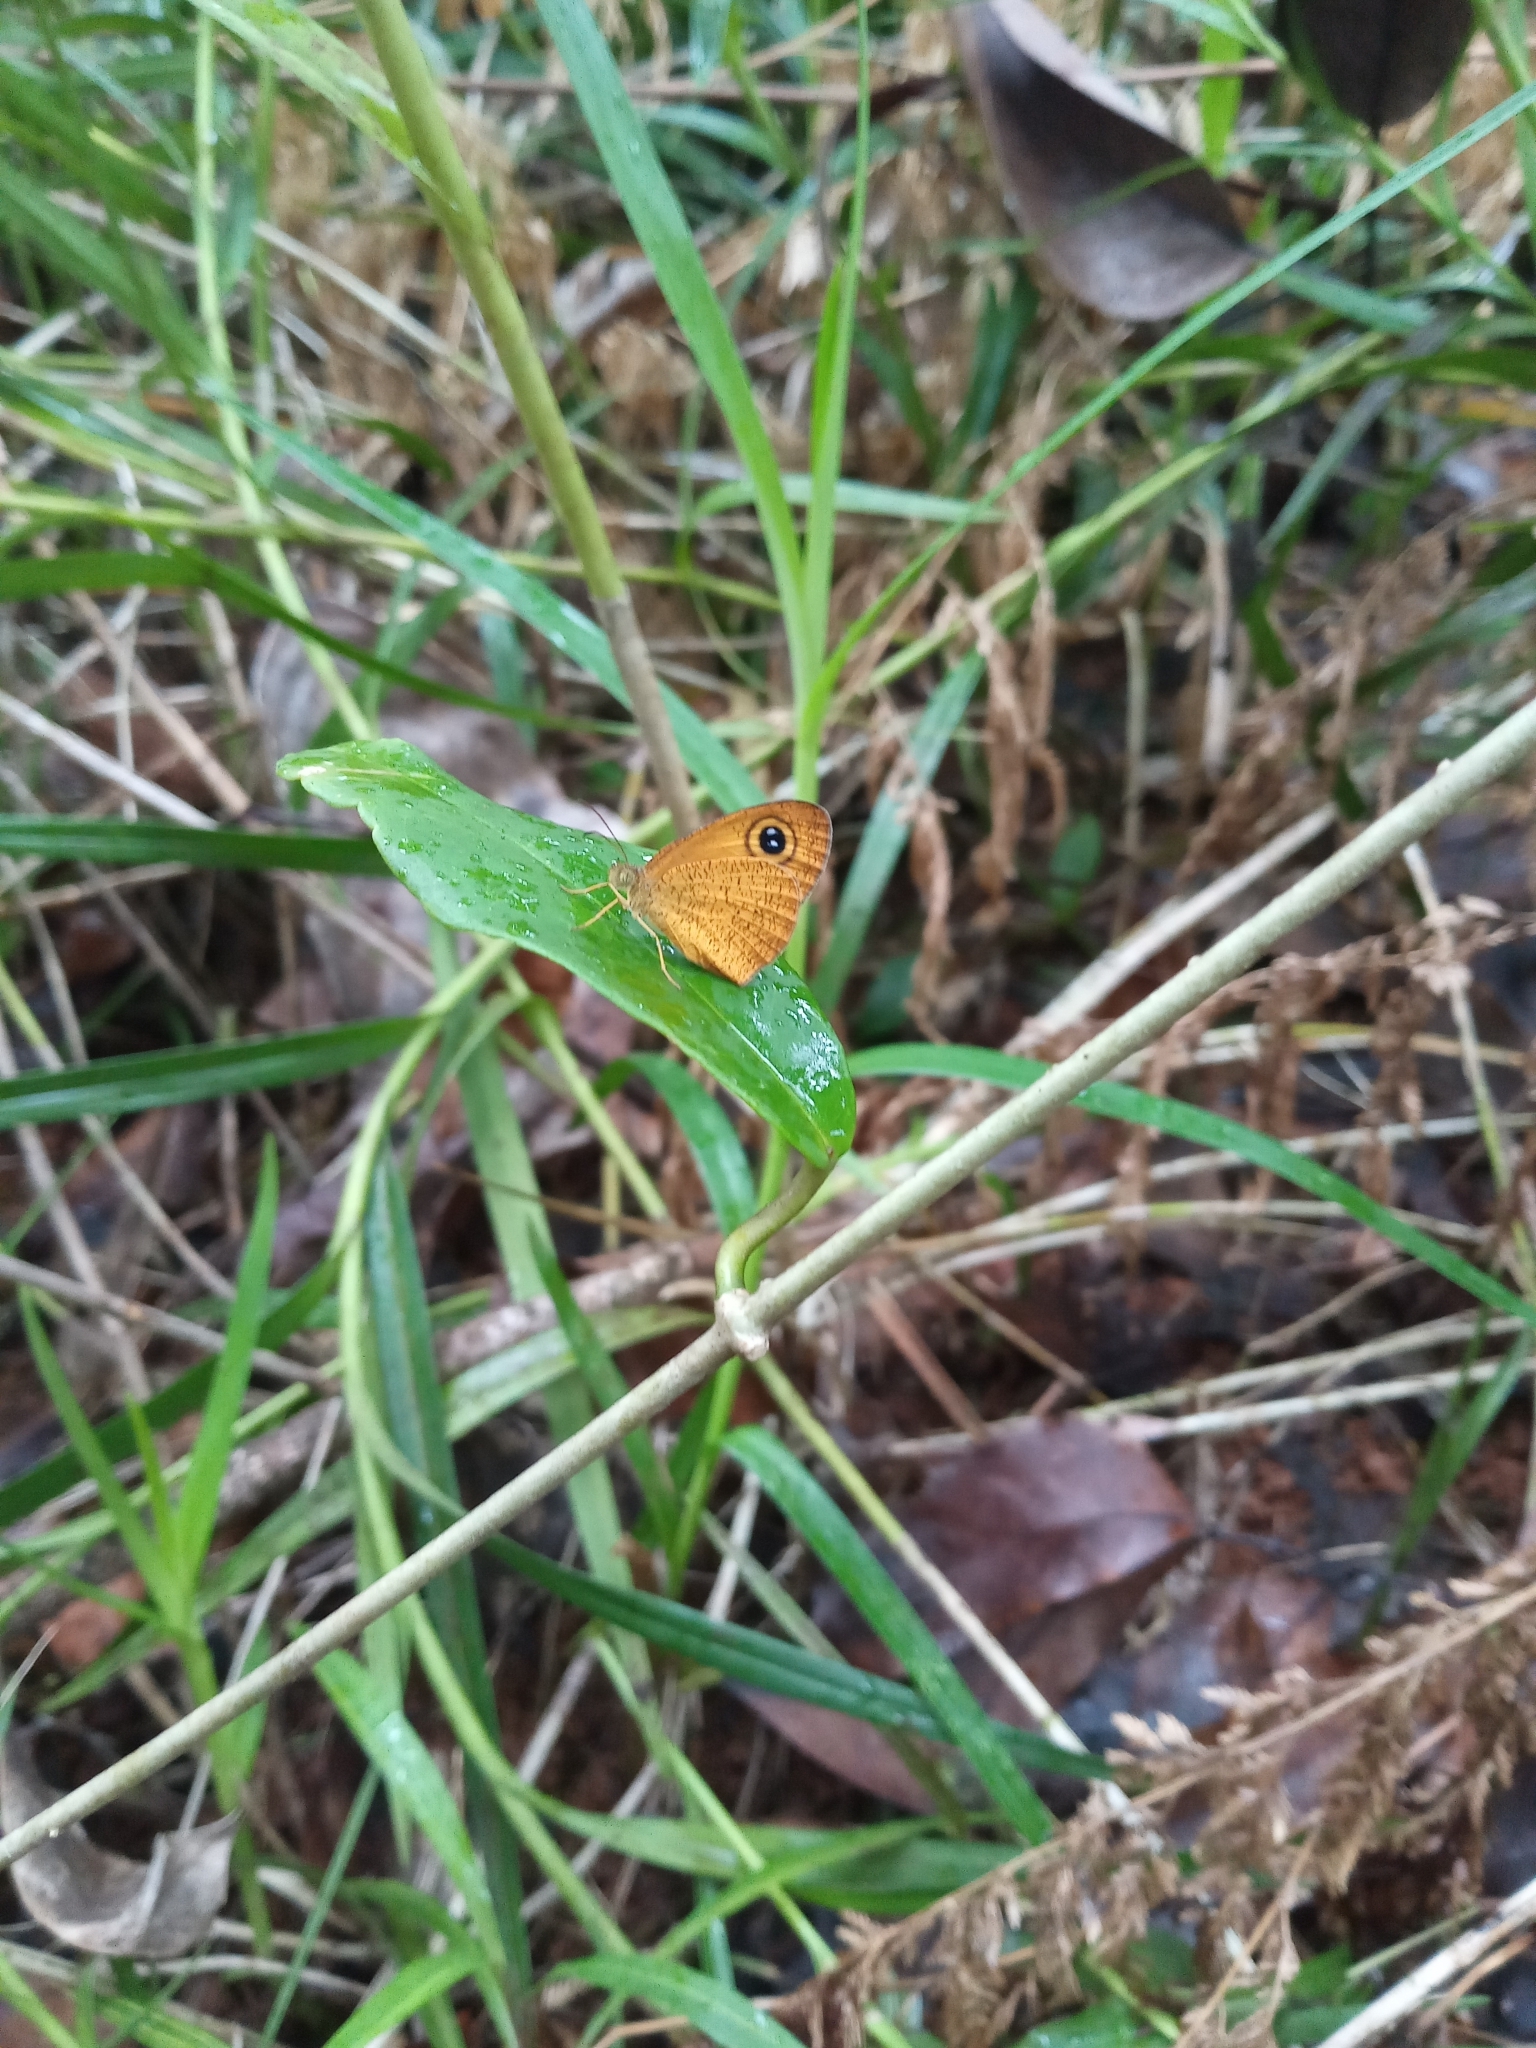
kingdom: Animalia
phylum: Arthropoda
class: Insecta
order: Lepidoptera
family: Nymphalidae
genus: Ypthima
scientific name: Ypthima sesara
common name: Common fijian ringlet
